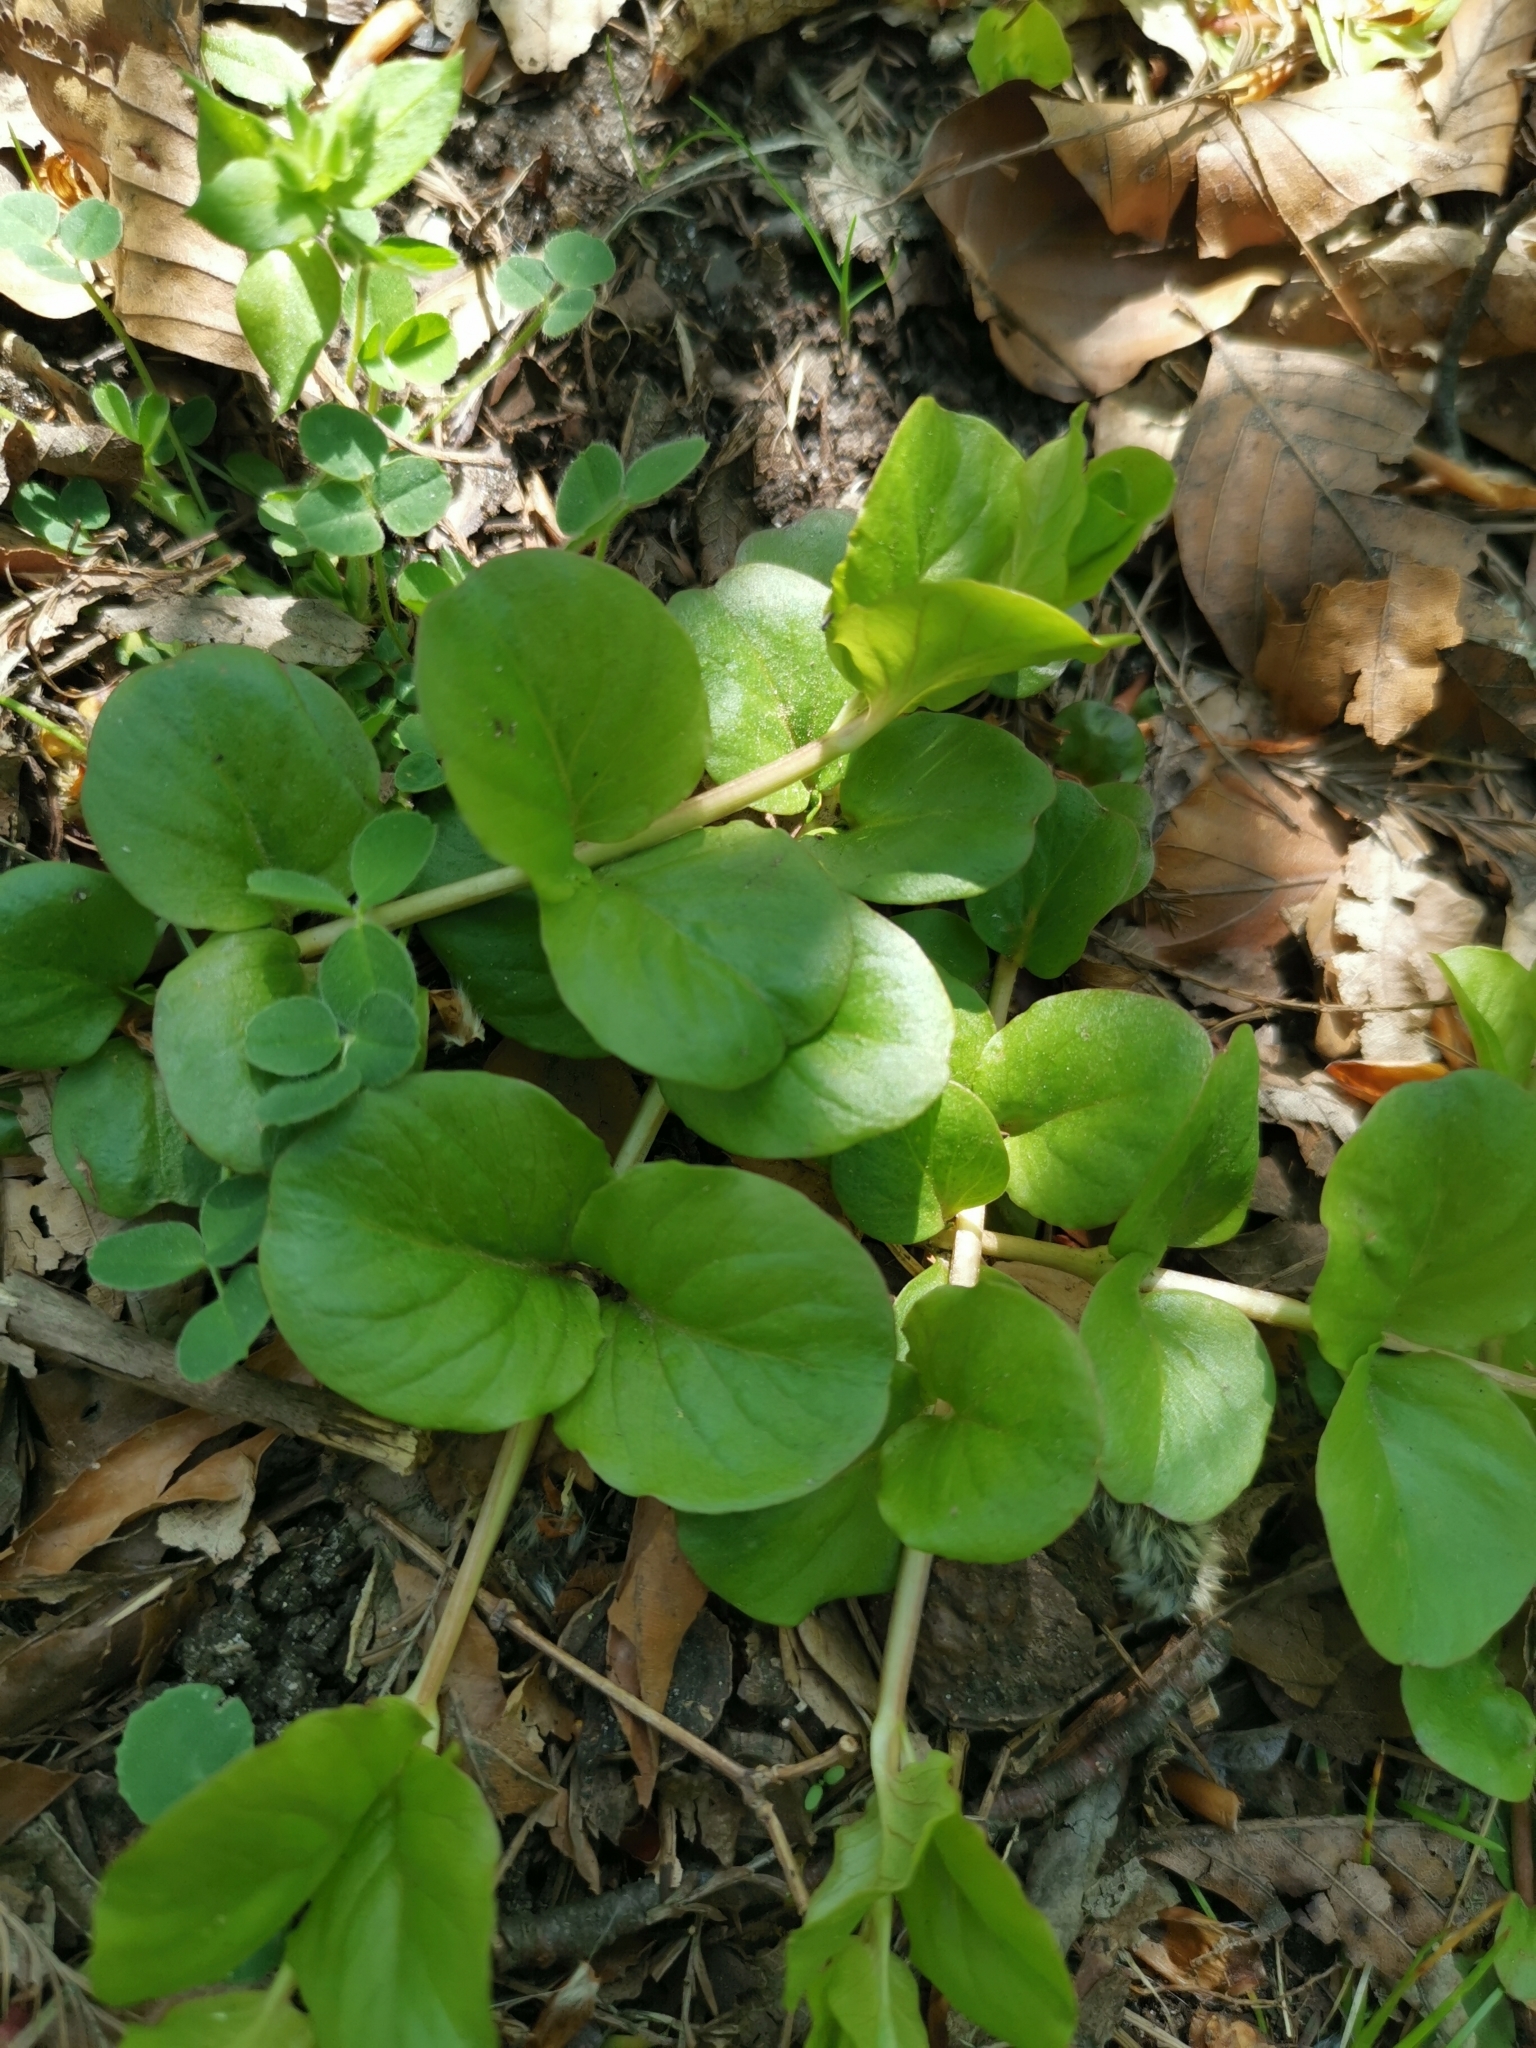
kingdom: Plantae
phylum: Tracheophyta
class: Magnoliopsida
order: Ericales
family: Primulaceae
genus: Lysimachia
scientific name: Lysimachia nummularia
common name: Moneywort
